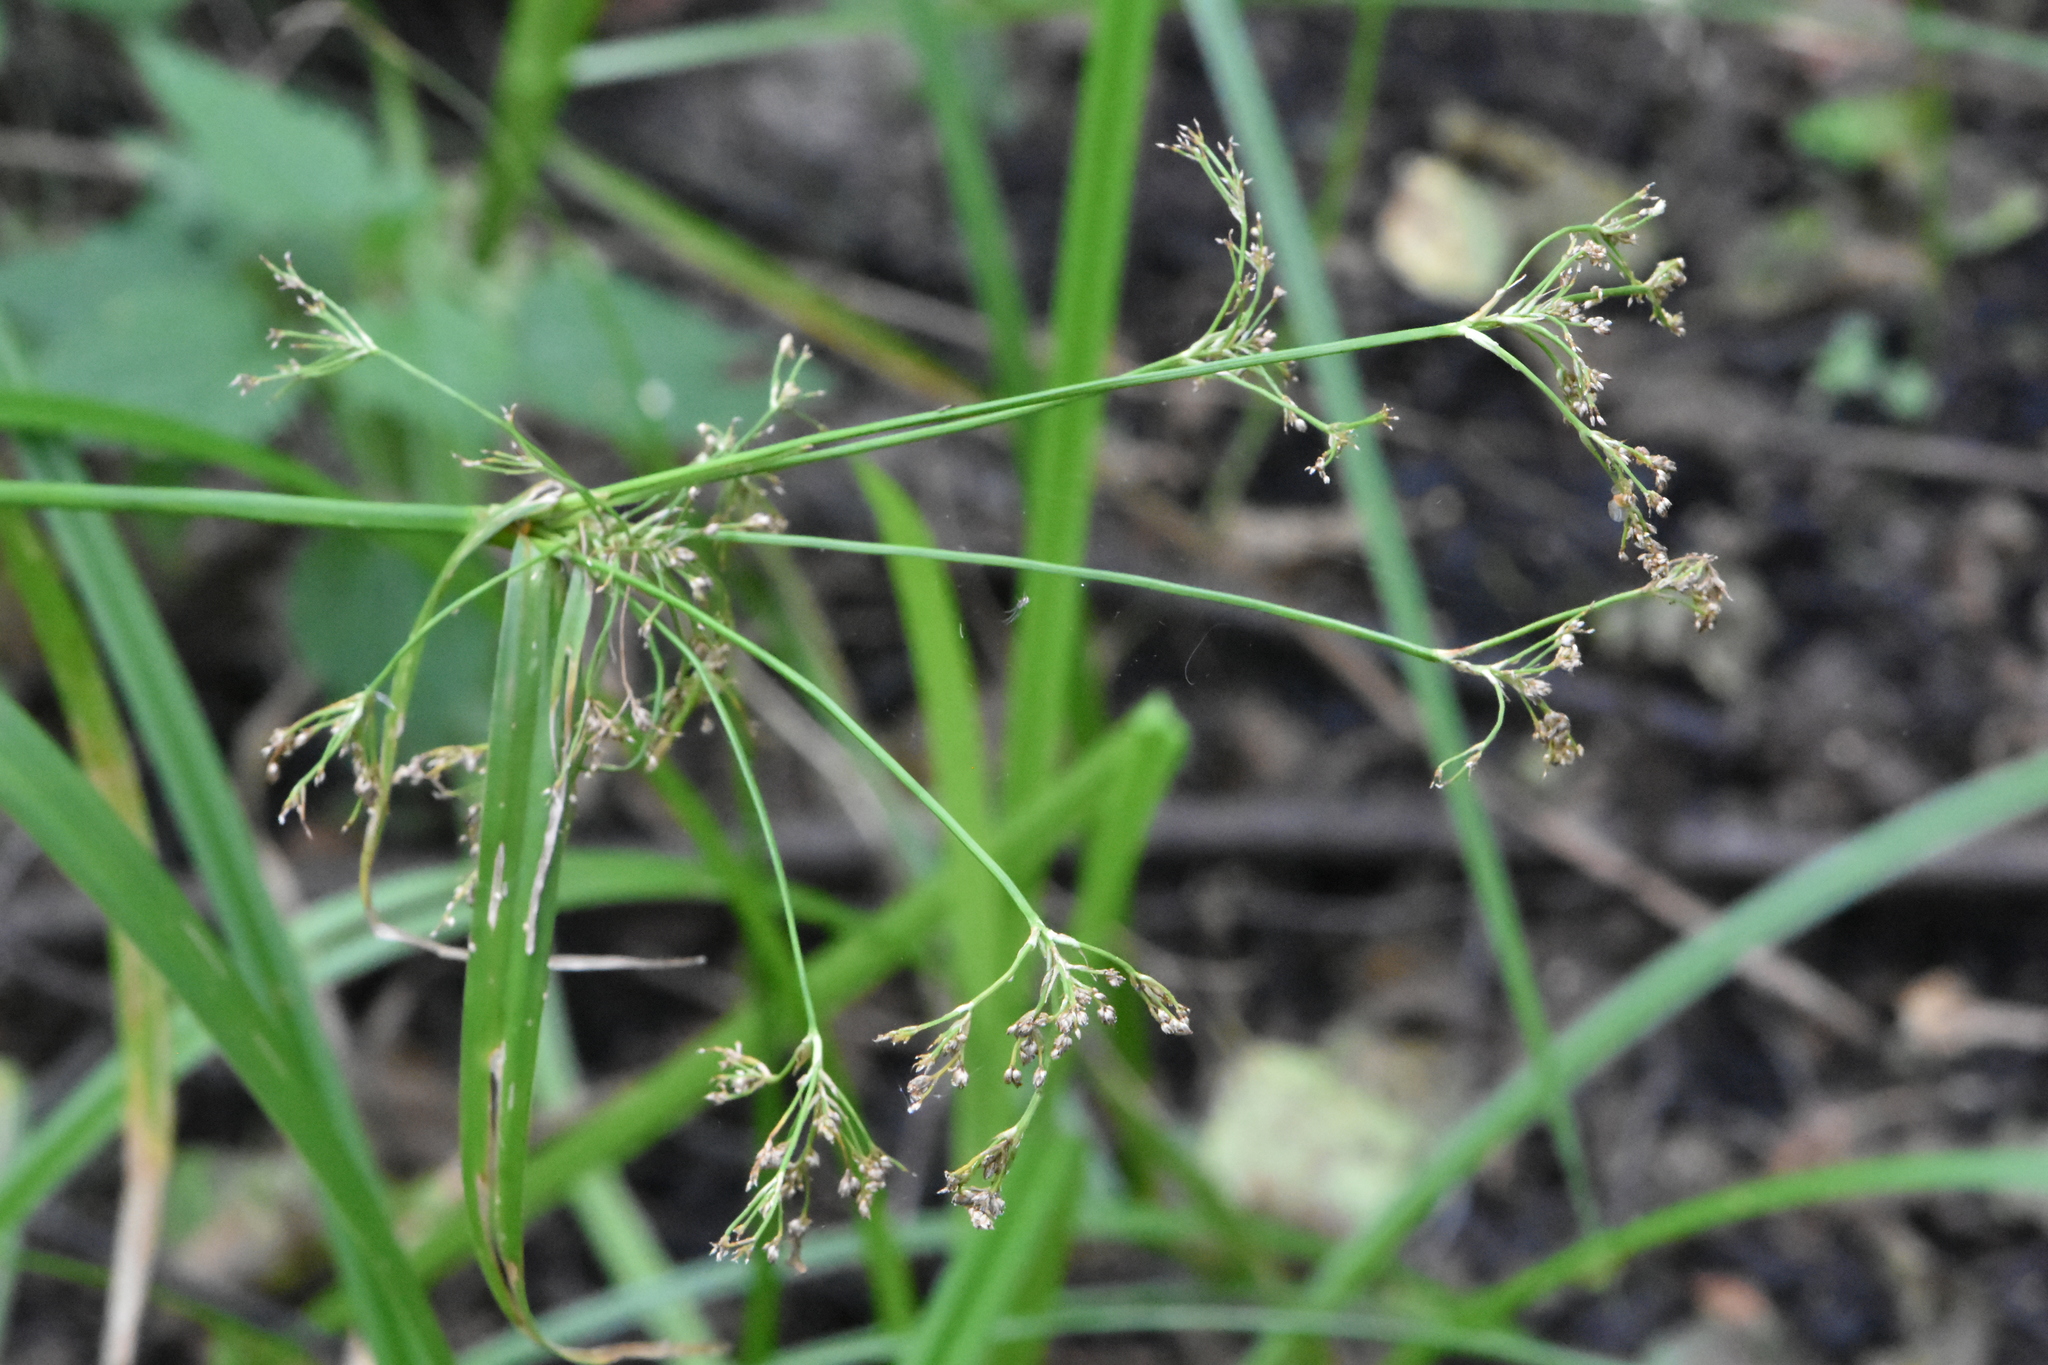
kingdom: Plantae
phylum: Tracheophyta
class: Liliopsida
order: Poales
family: Cyperaceae
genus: Scirpus
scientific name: Scirpus sylvaticus
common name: Wood club-rush
